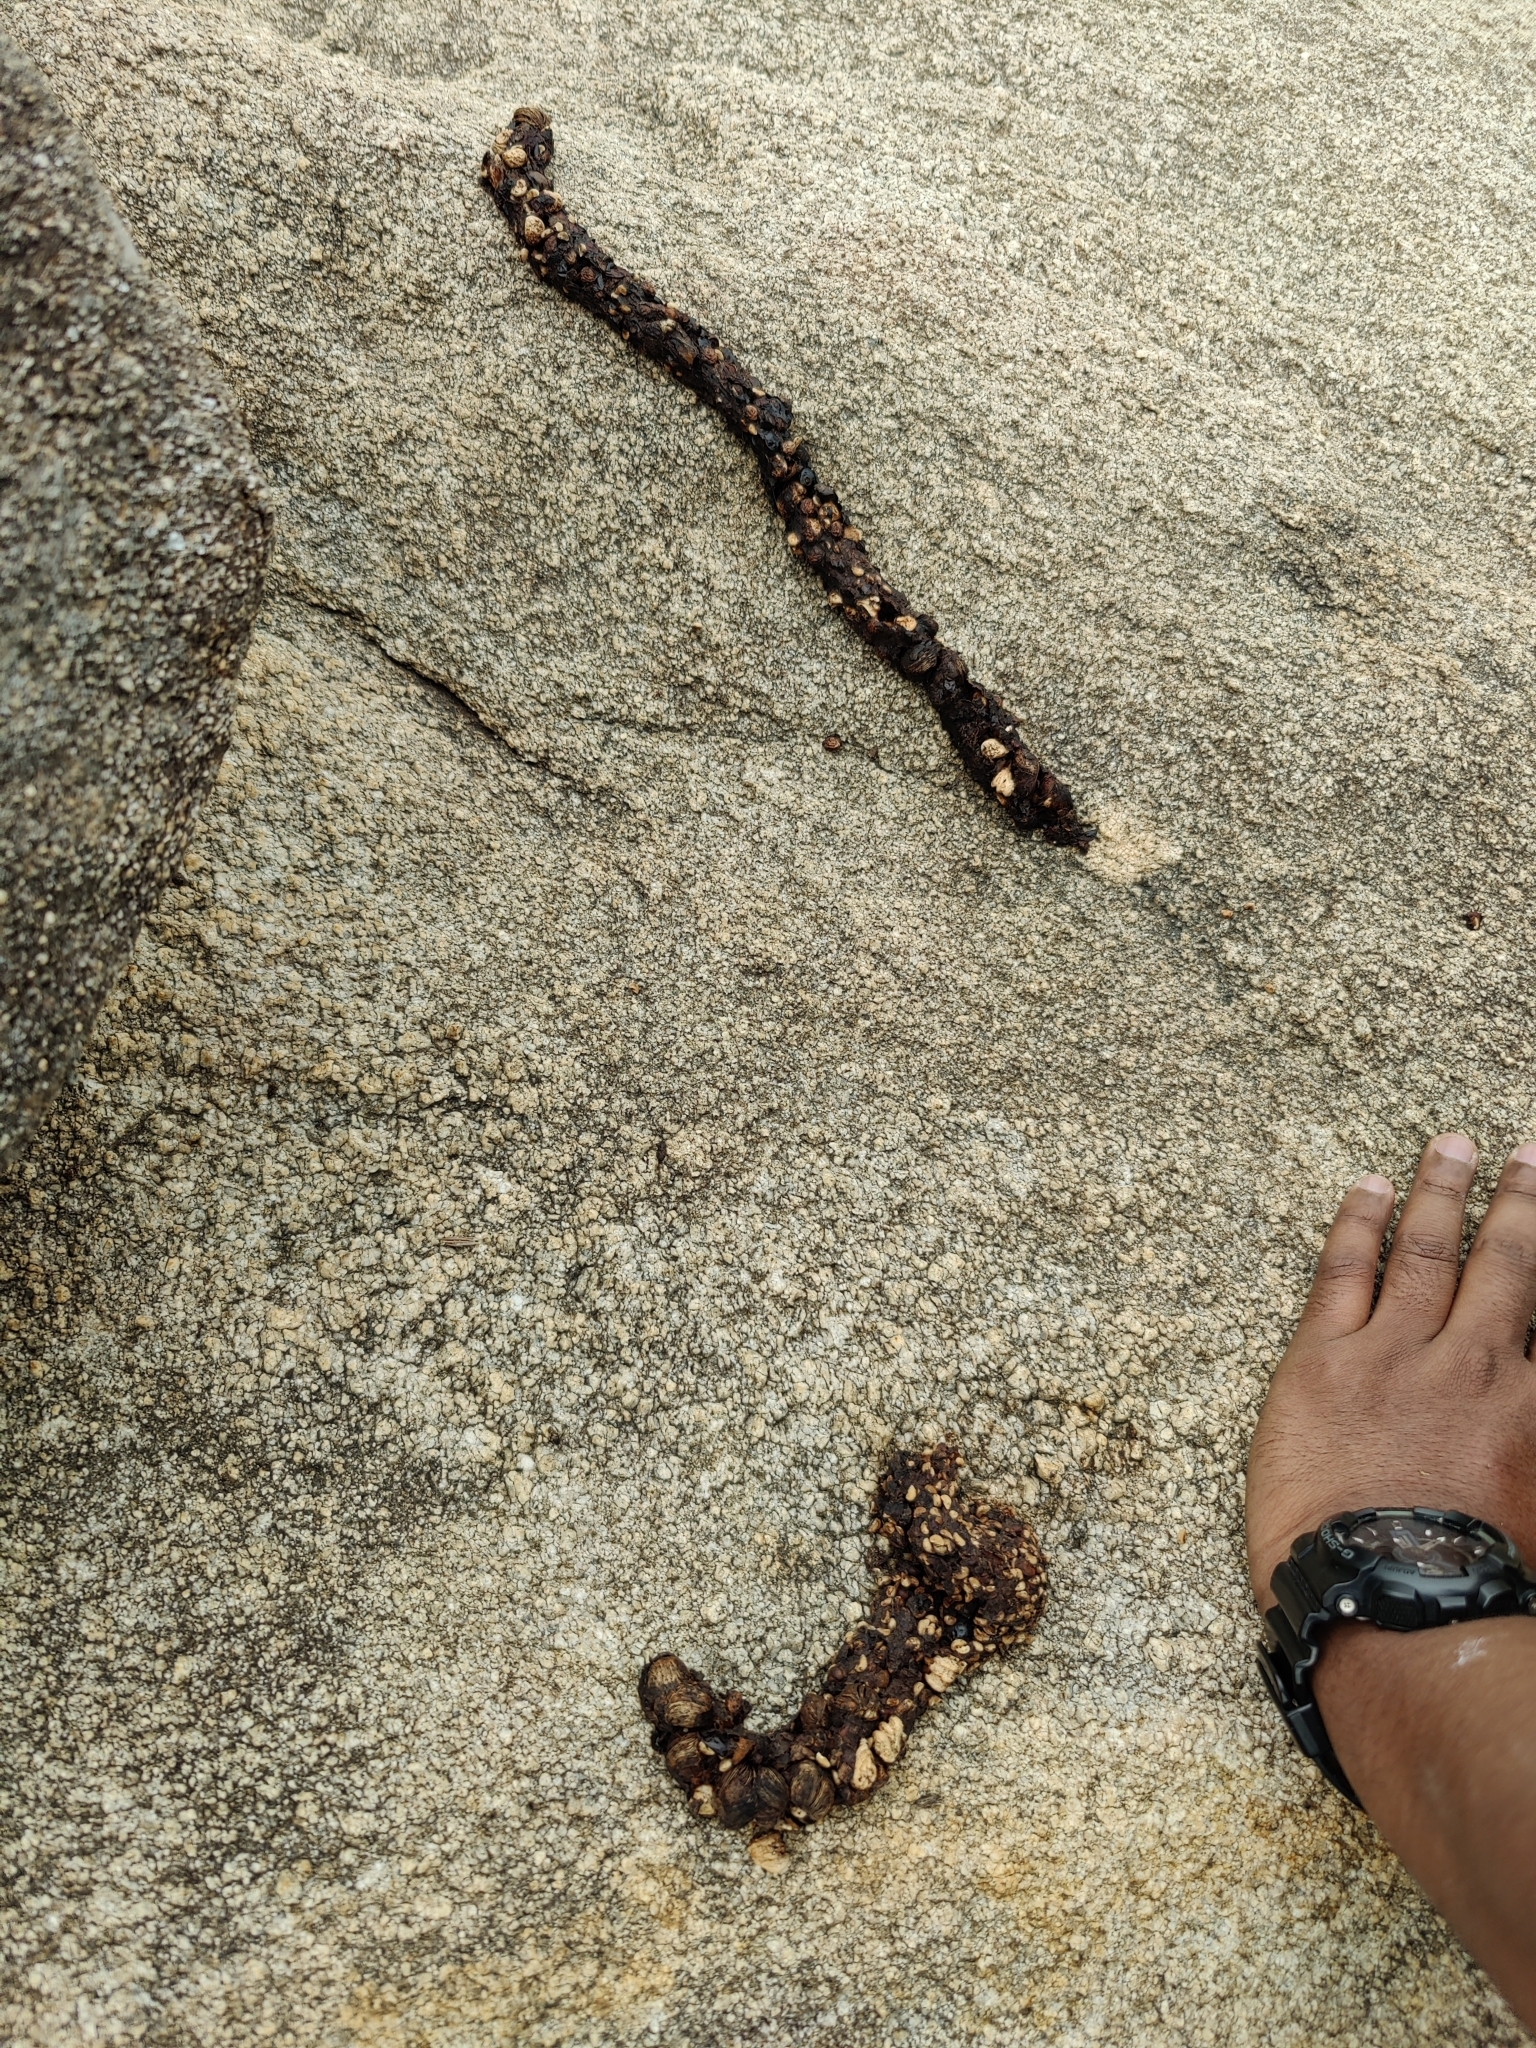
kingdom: Animalia
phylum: Chordata
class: Mammalia
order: Carnivora
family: Viverridae
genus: Paradoxurus
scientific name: Paradoxurus hermaphroditus
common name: Common palm civet
